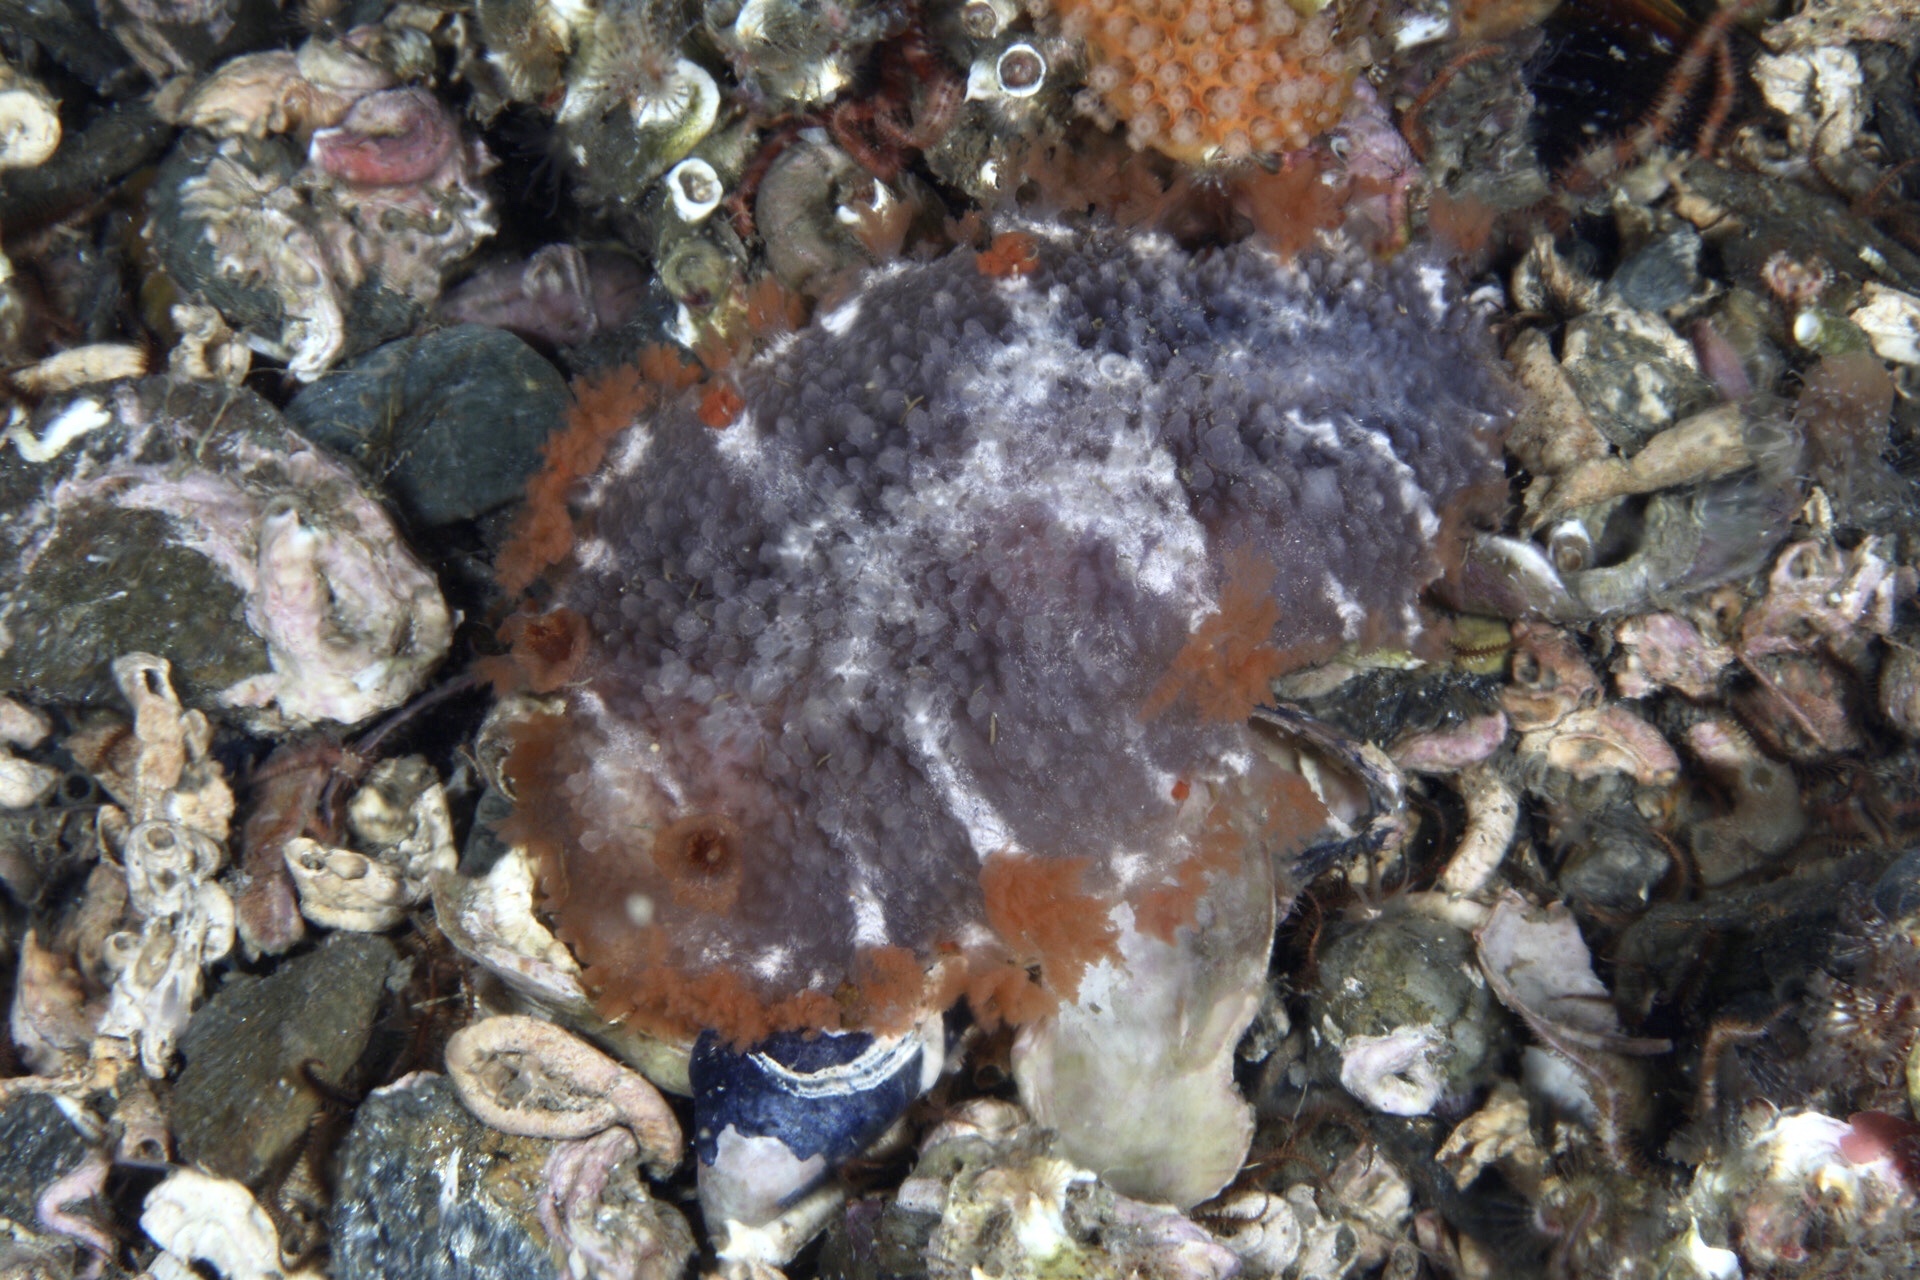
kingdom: Animalia
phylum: Mollusca
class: Gastropoda
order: Nudibranchia
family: Tritoniidae
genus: Tritonia
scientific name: Tritonia hombergii
